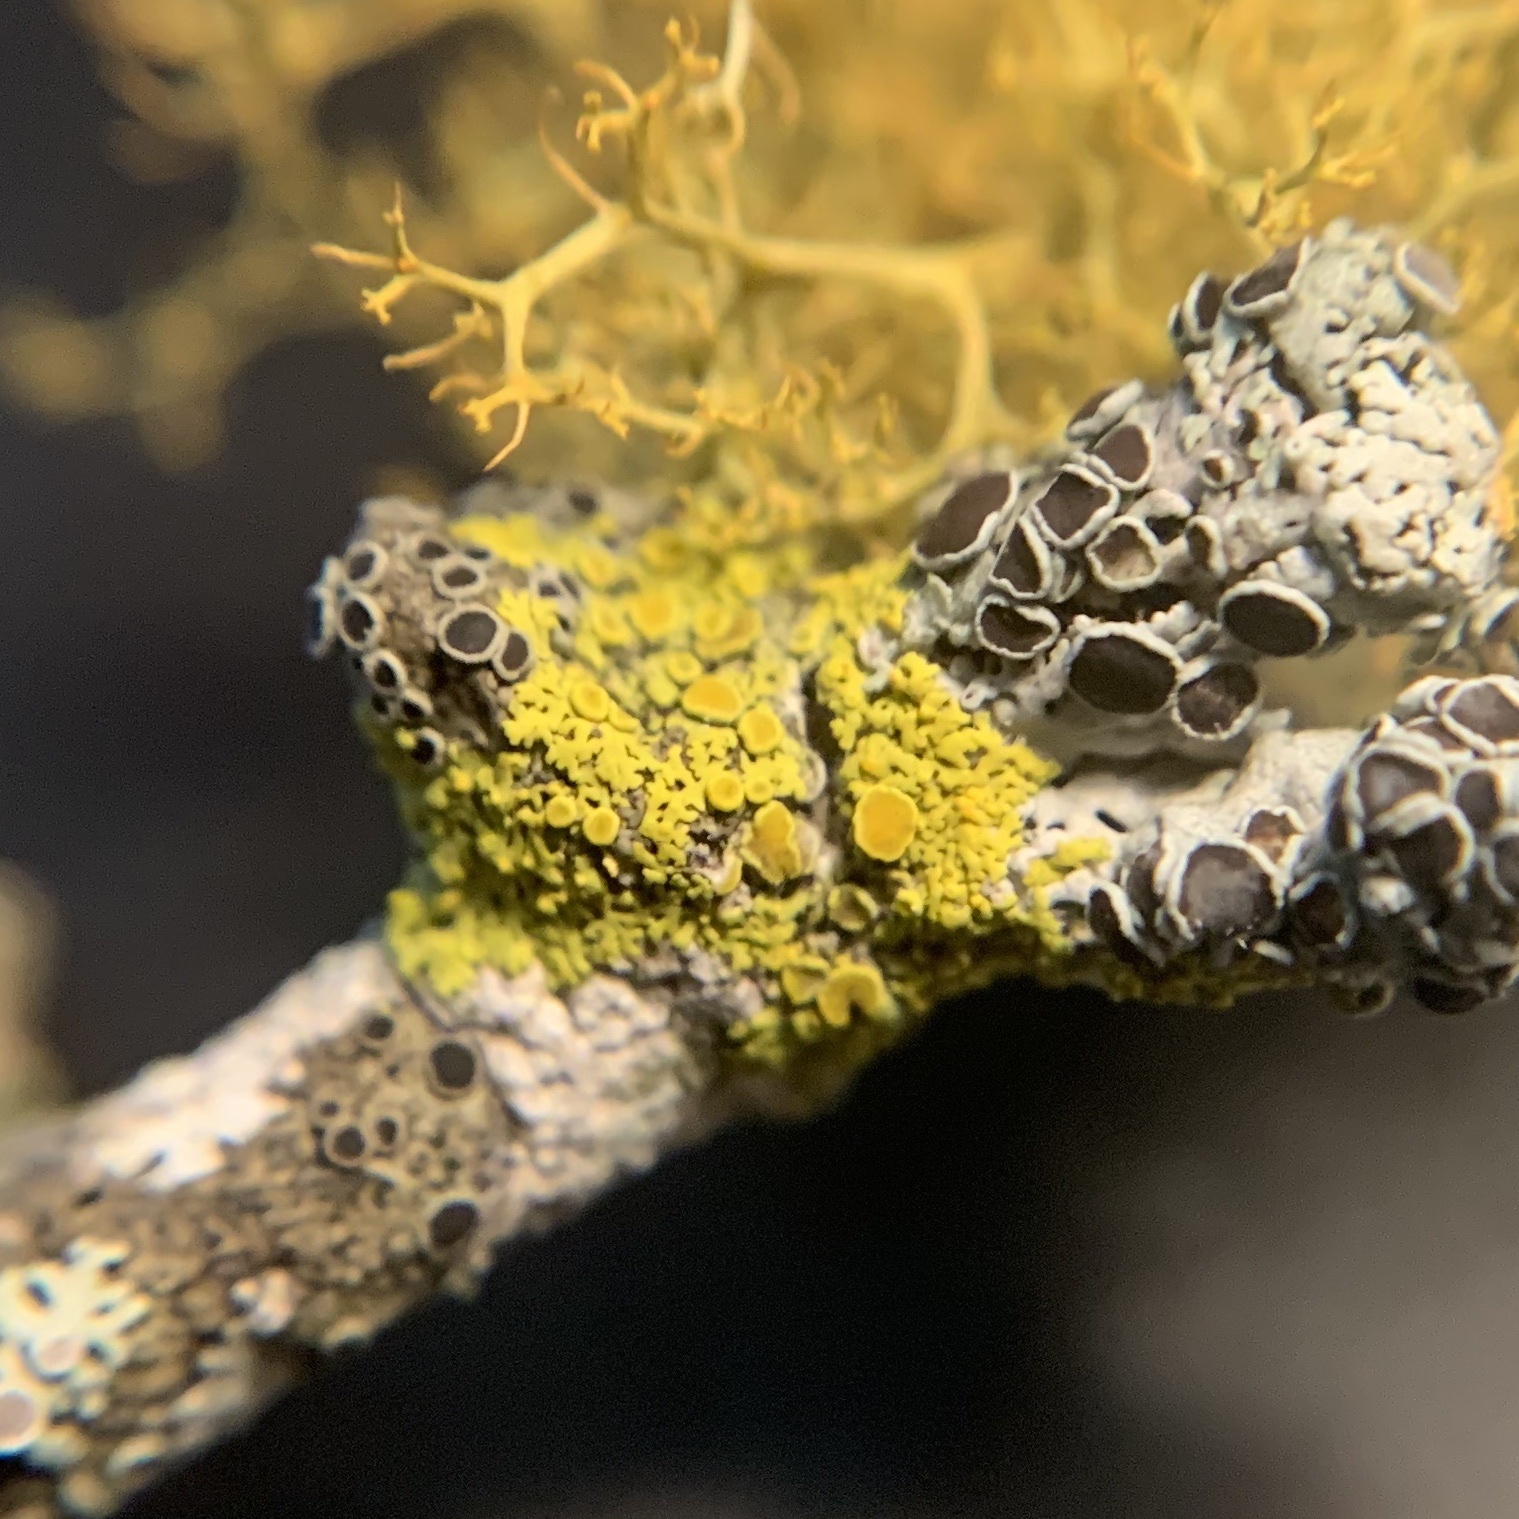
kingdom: Fungi
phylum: Ascomycota
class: Candelariomycetes
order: Candelariales
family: Candelariaceae
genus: Candelaria
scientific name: Candelaria fibrosa
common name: Fringed candleflame lichen
